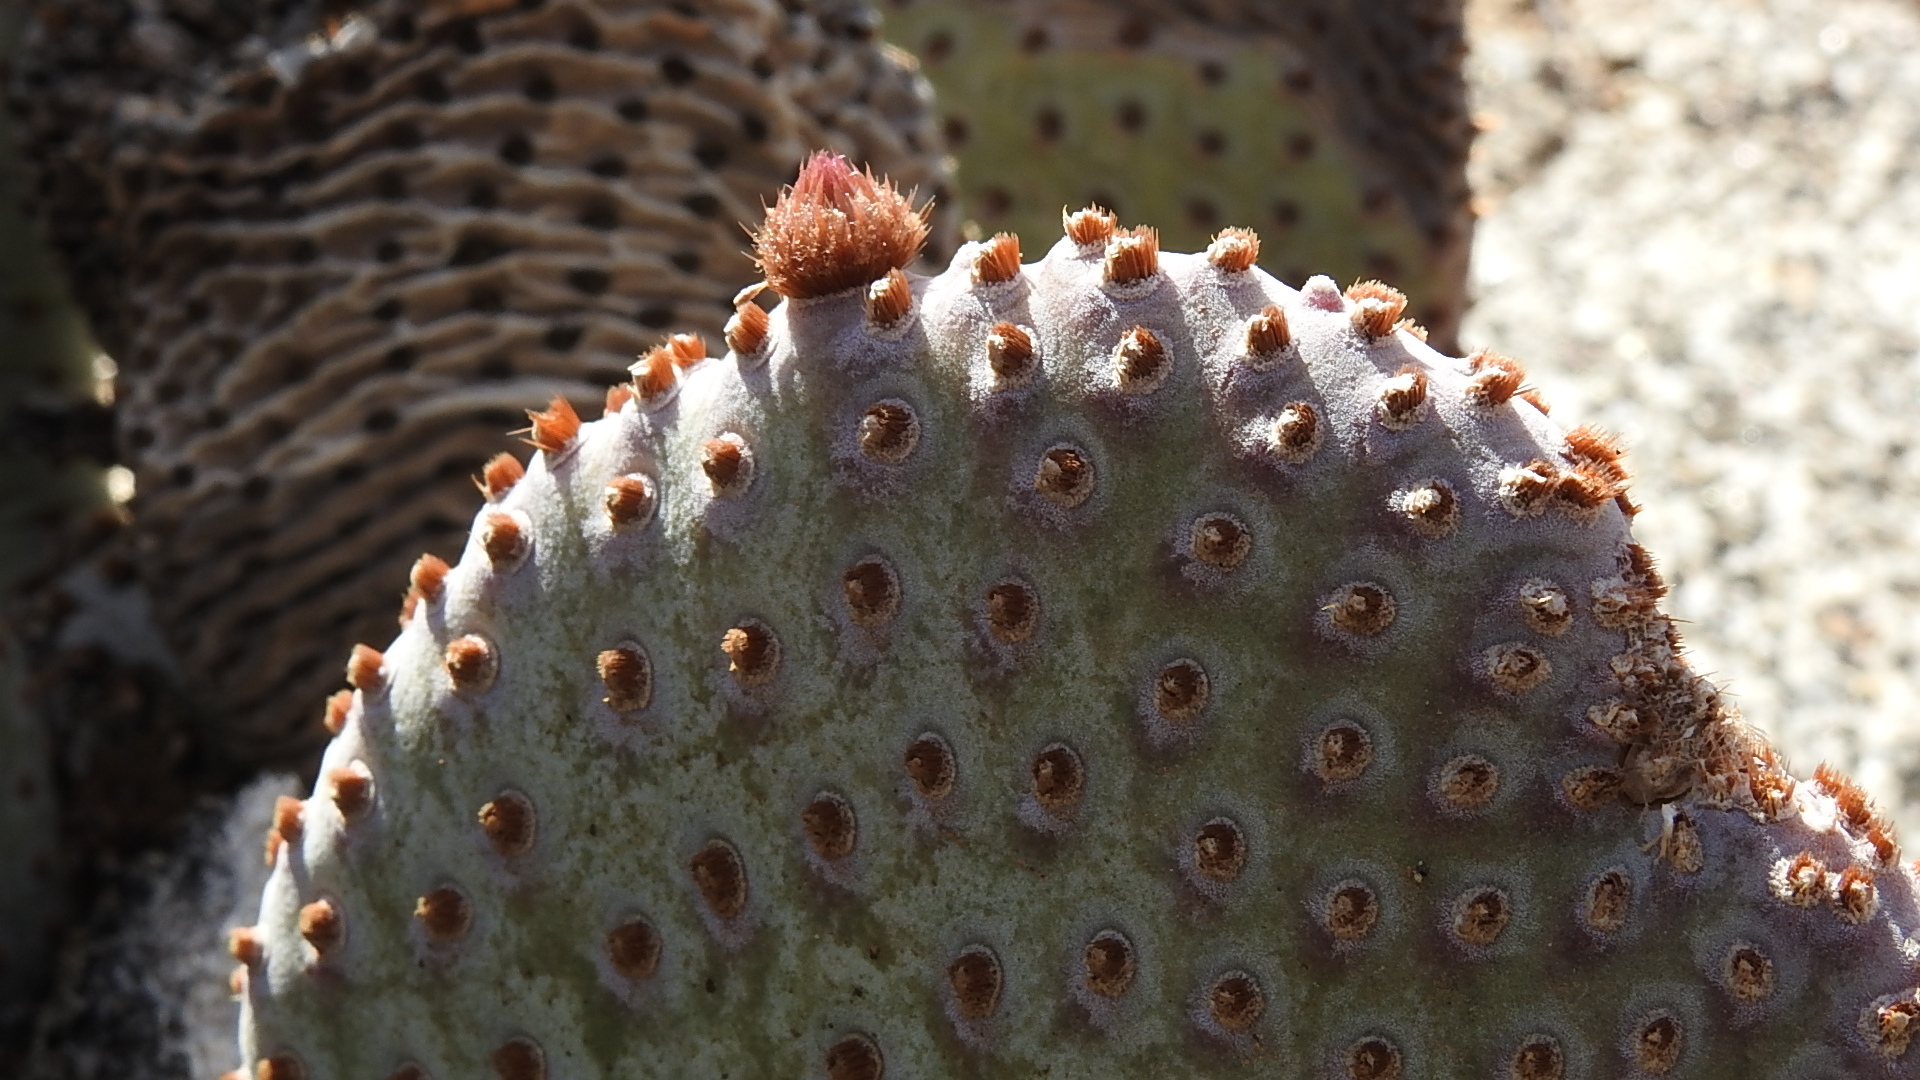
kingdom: Plantae
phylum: Tracheophyta
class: Magnoliopsida
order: Caryophyllales
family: Cactaceae
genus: Opuntia
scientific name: Opuntia basilaris
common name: Beavertail prickly-pear
